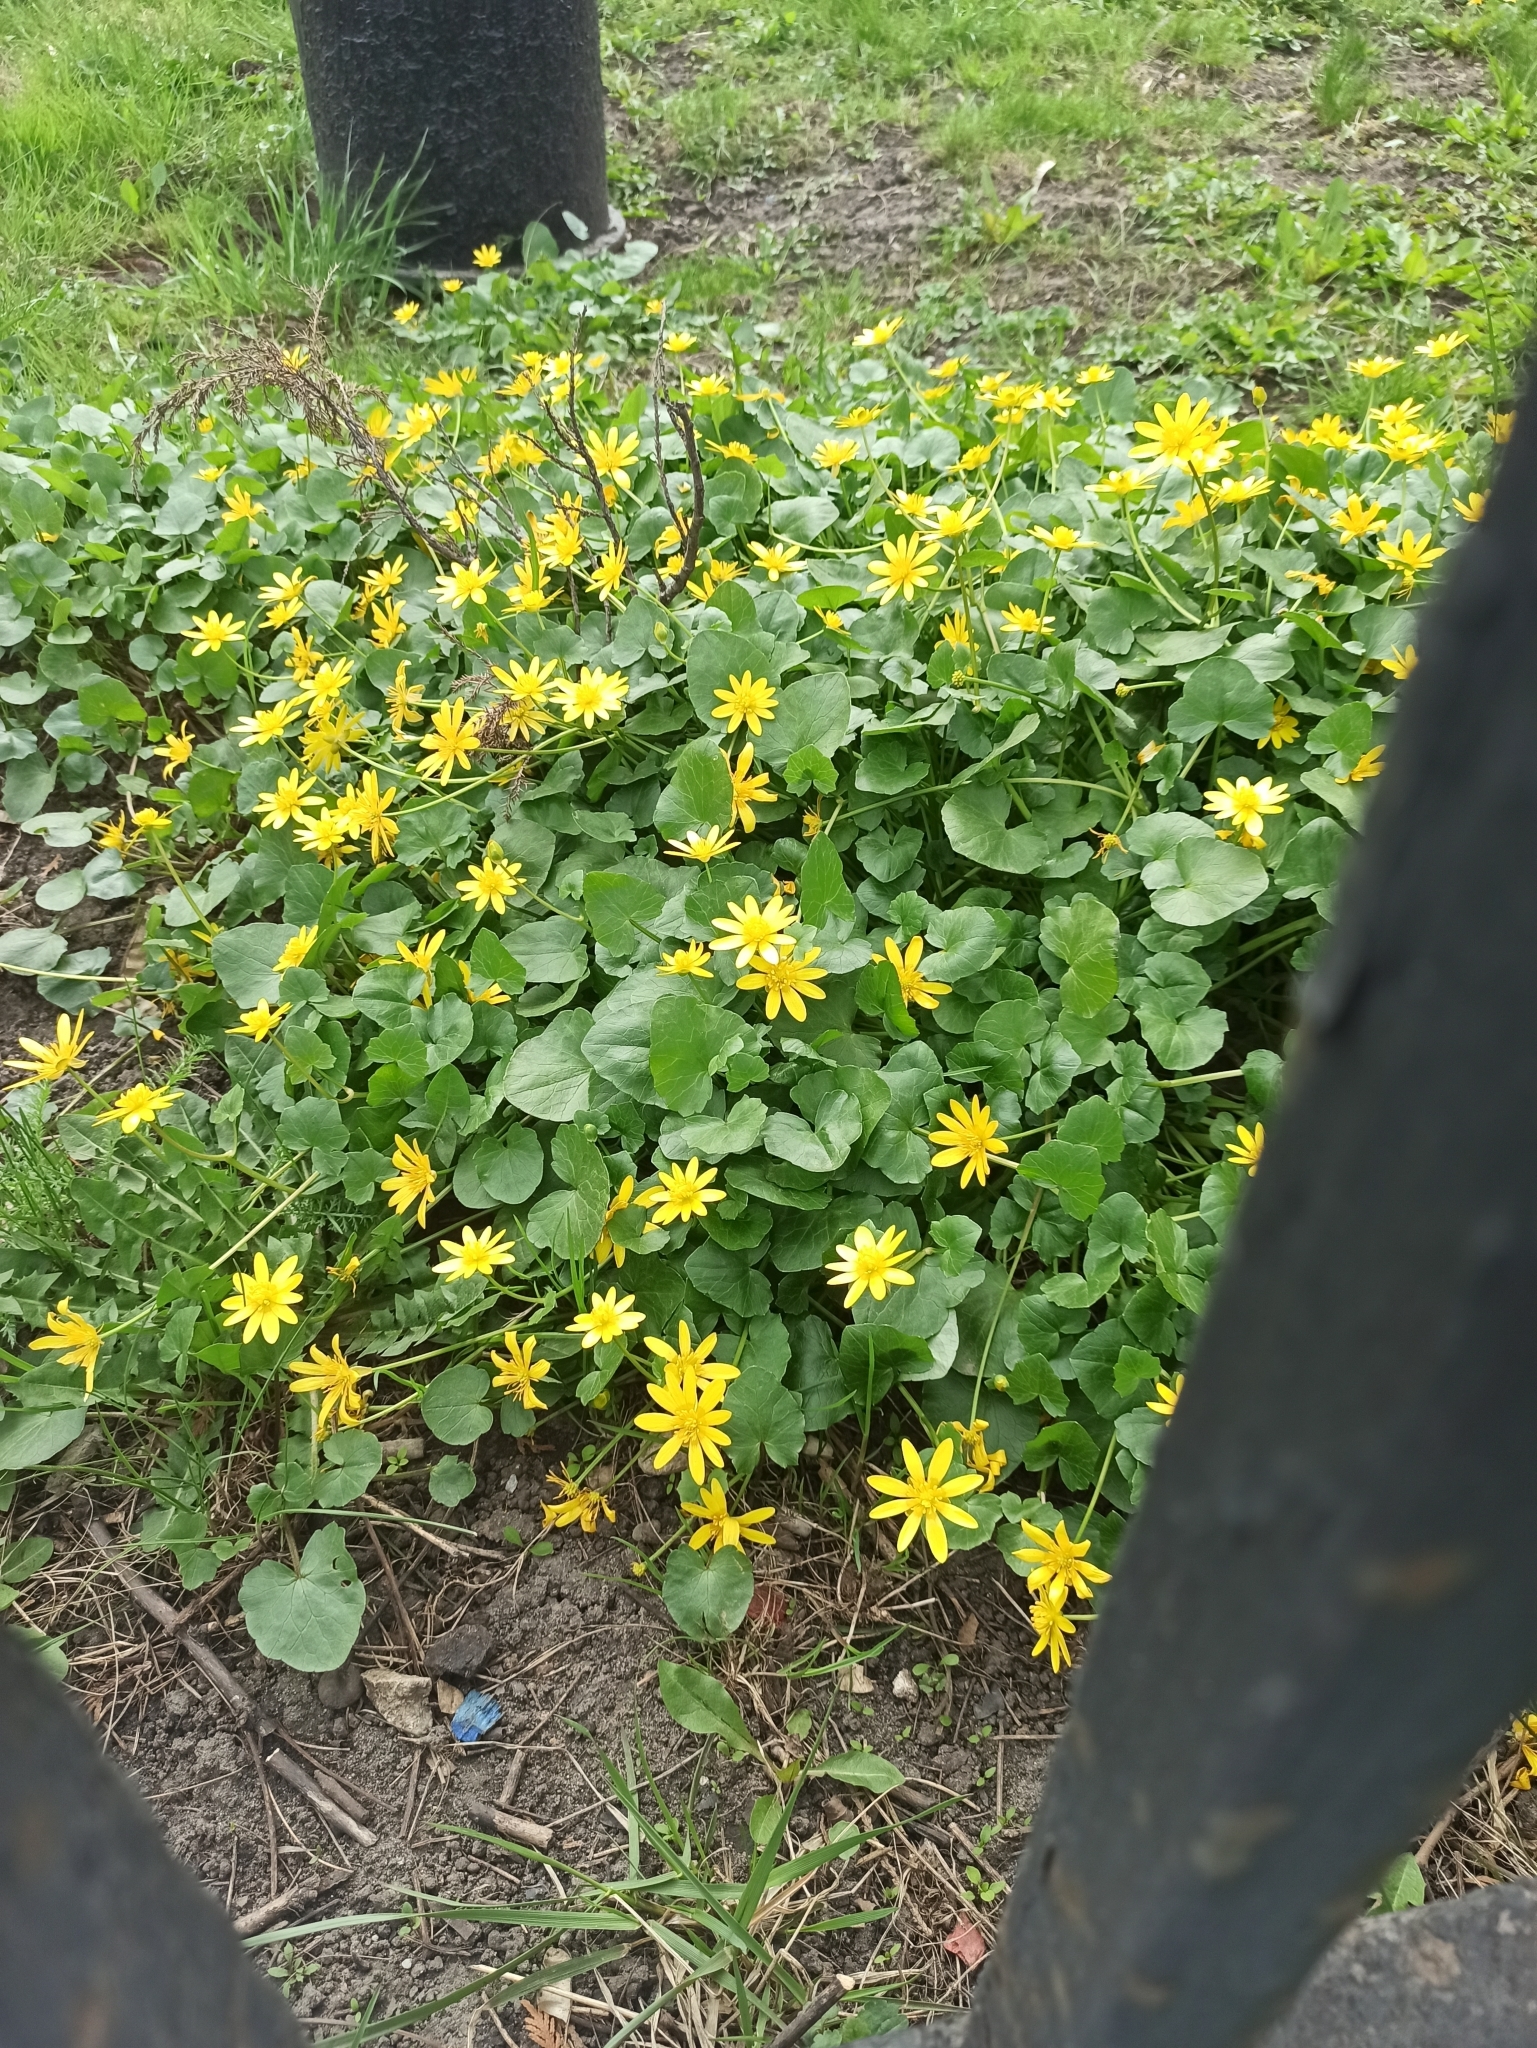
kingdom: Plantae
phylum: Tracheophyta
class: Magnoliopsida
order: Ranunculales
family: Ranunculaceae
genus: Ficaria
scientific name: Ficaria verna
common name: Lesser celandine
